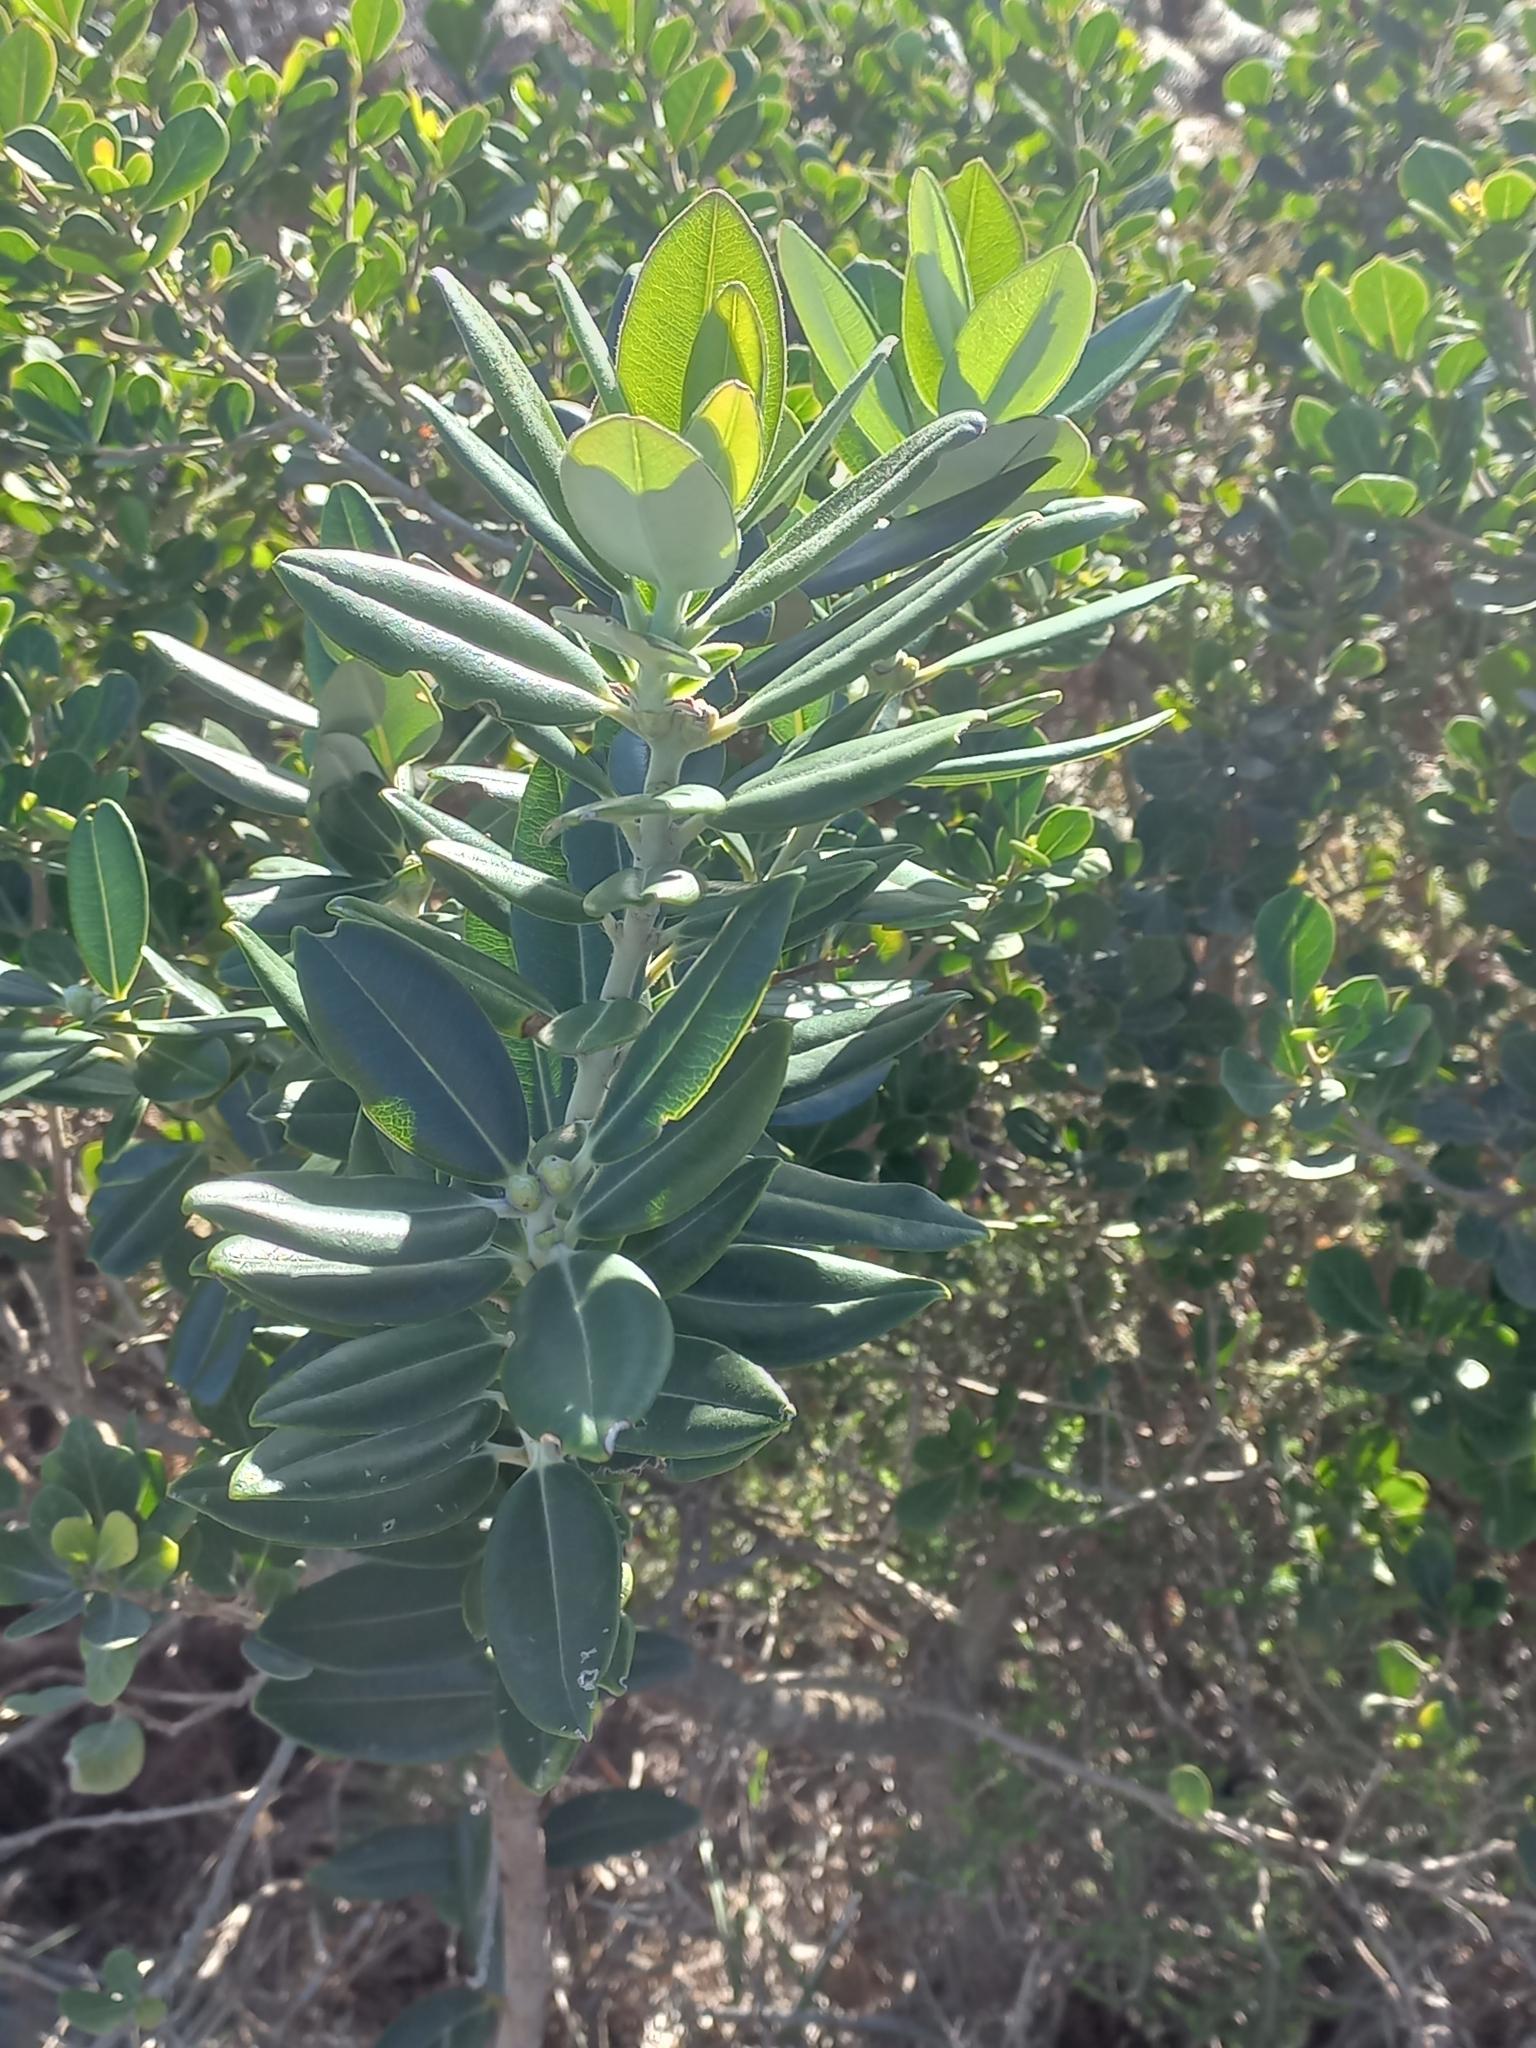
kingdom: Plantae
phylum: Tracheophyta
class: Magnoliopsida
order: Myrtales
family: Myrtaceae
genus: Metrosideros
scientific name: Metrosideros excelsa
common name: New zealand christmastree
